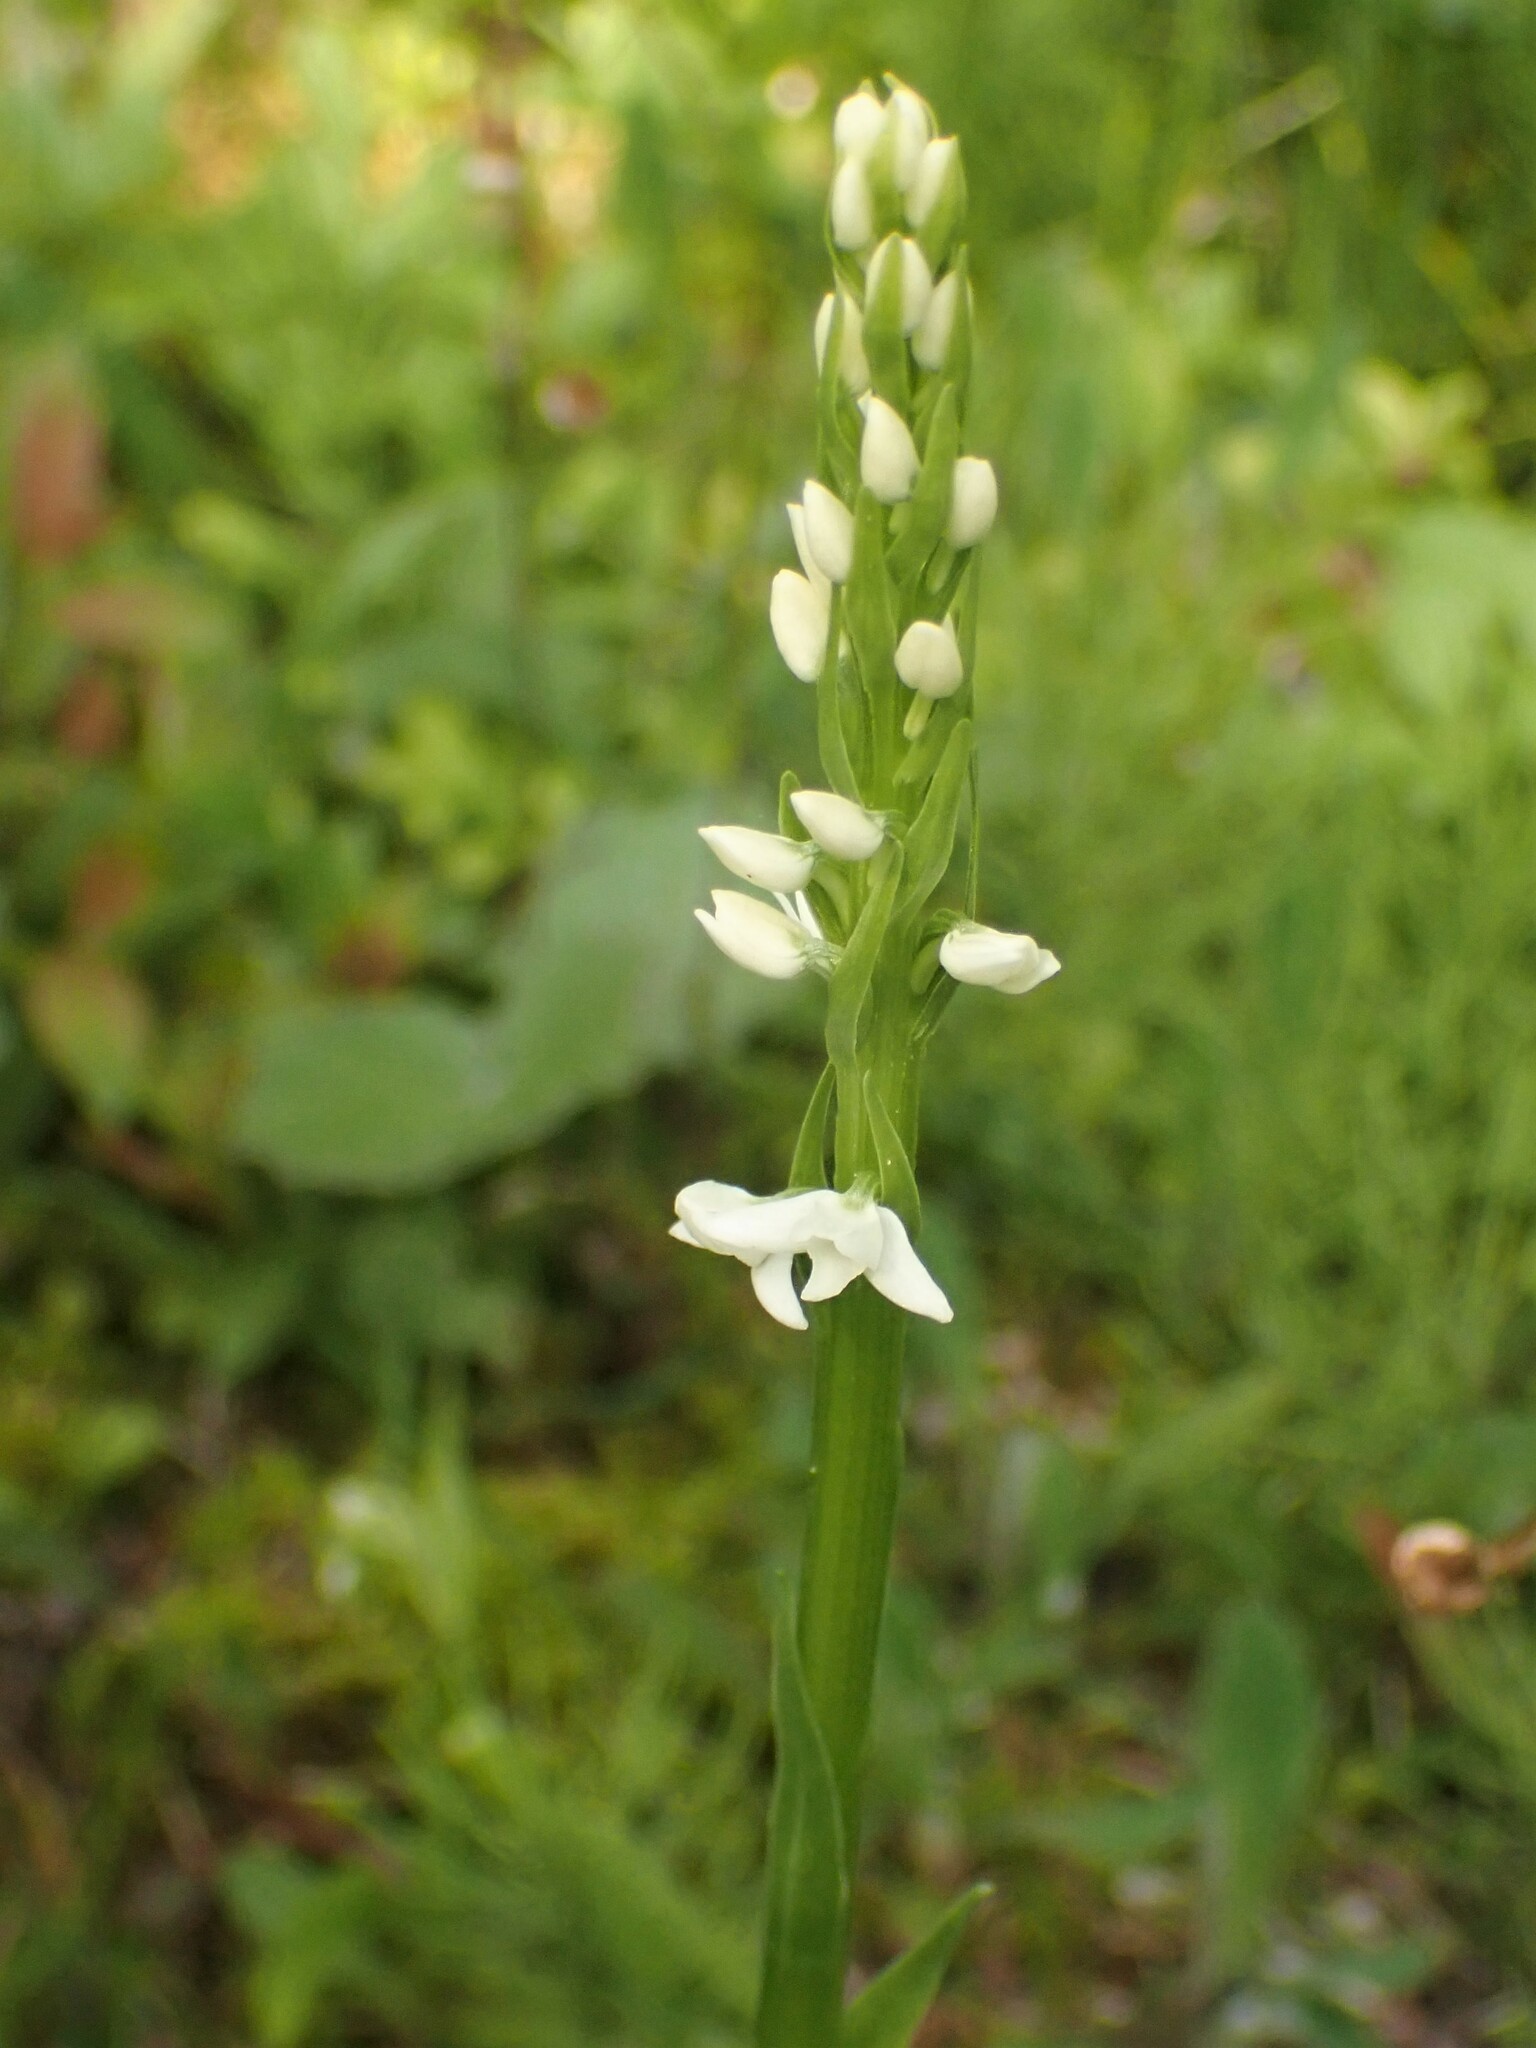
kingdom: Plantae
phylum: Tracheophyta
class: Liliopsida
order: Asparagales
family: Orchidaceae
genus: Platanthera
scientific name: Platanthera dilatata
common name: Bog candles
